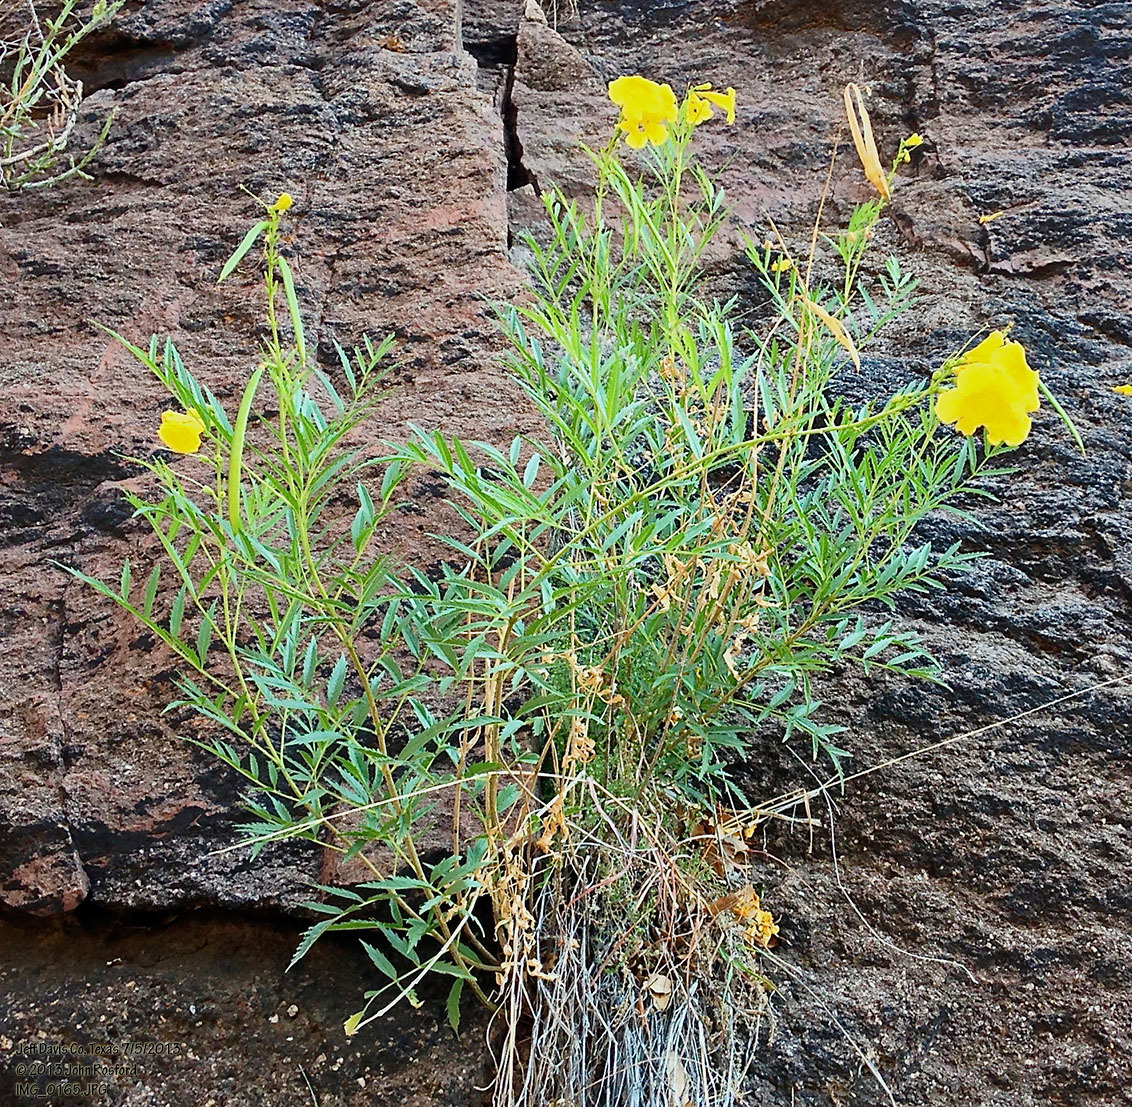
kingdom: Plantae
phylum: Tracheophyta
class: Magnoliopsida
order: Lamiales
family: Bignoniaceae
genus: Tecoma
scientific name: Tecoma stans
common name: Yellow trumpetbush
